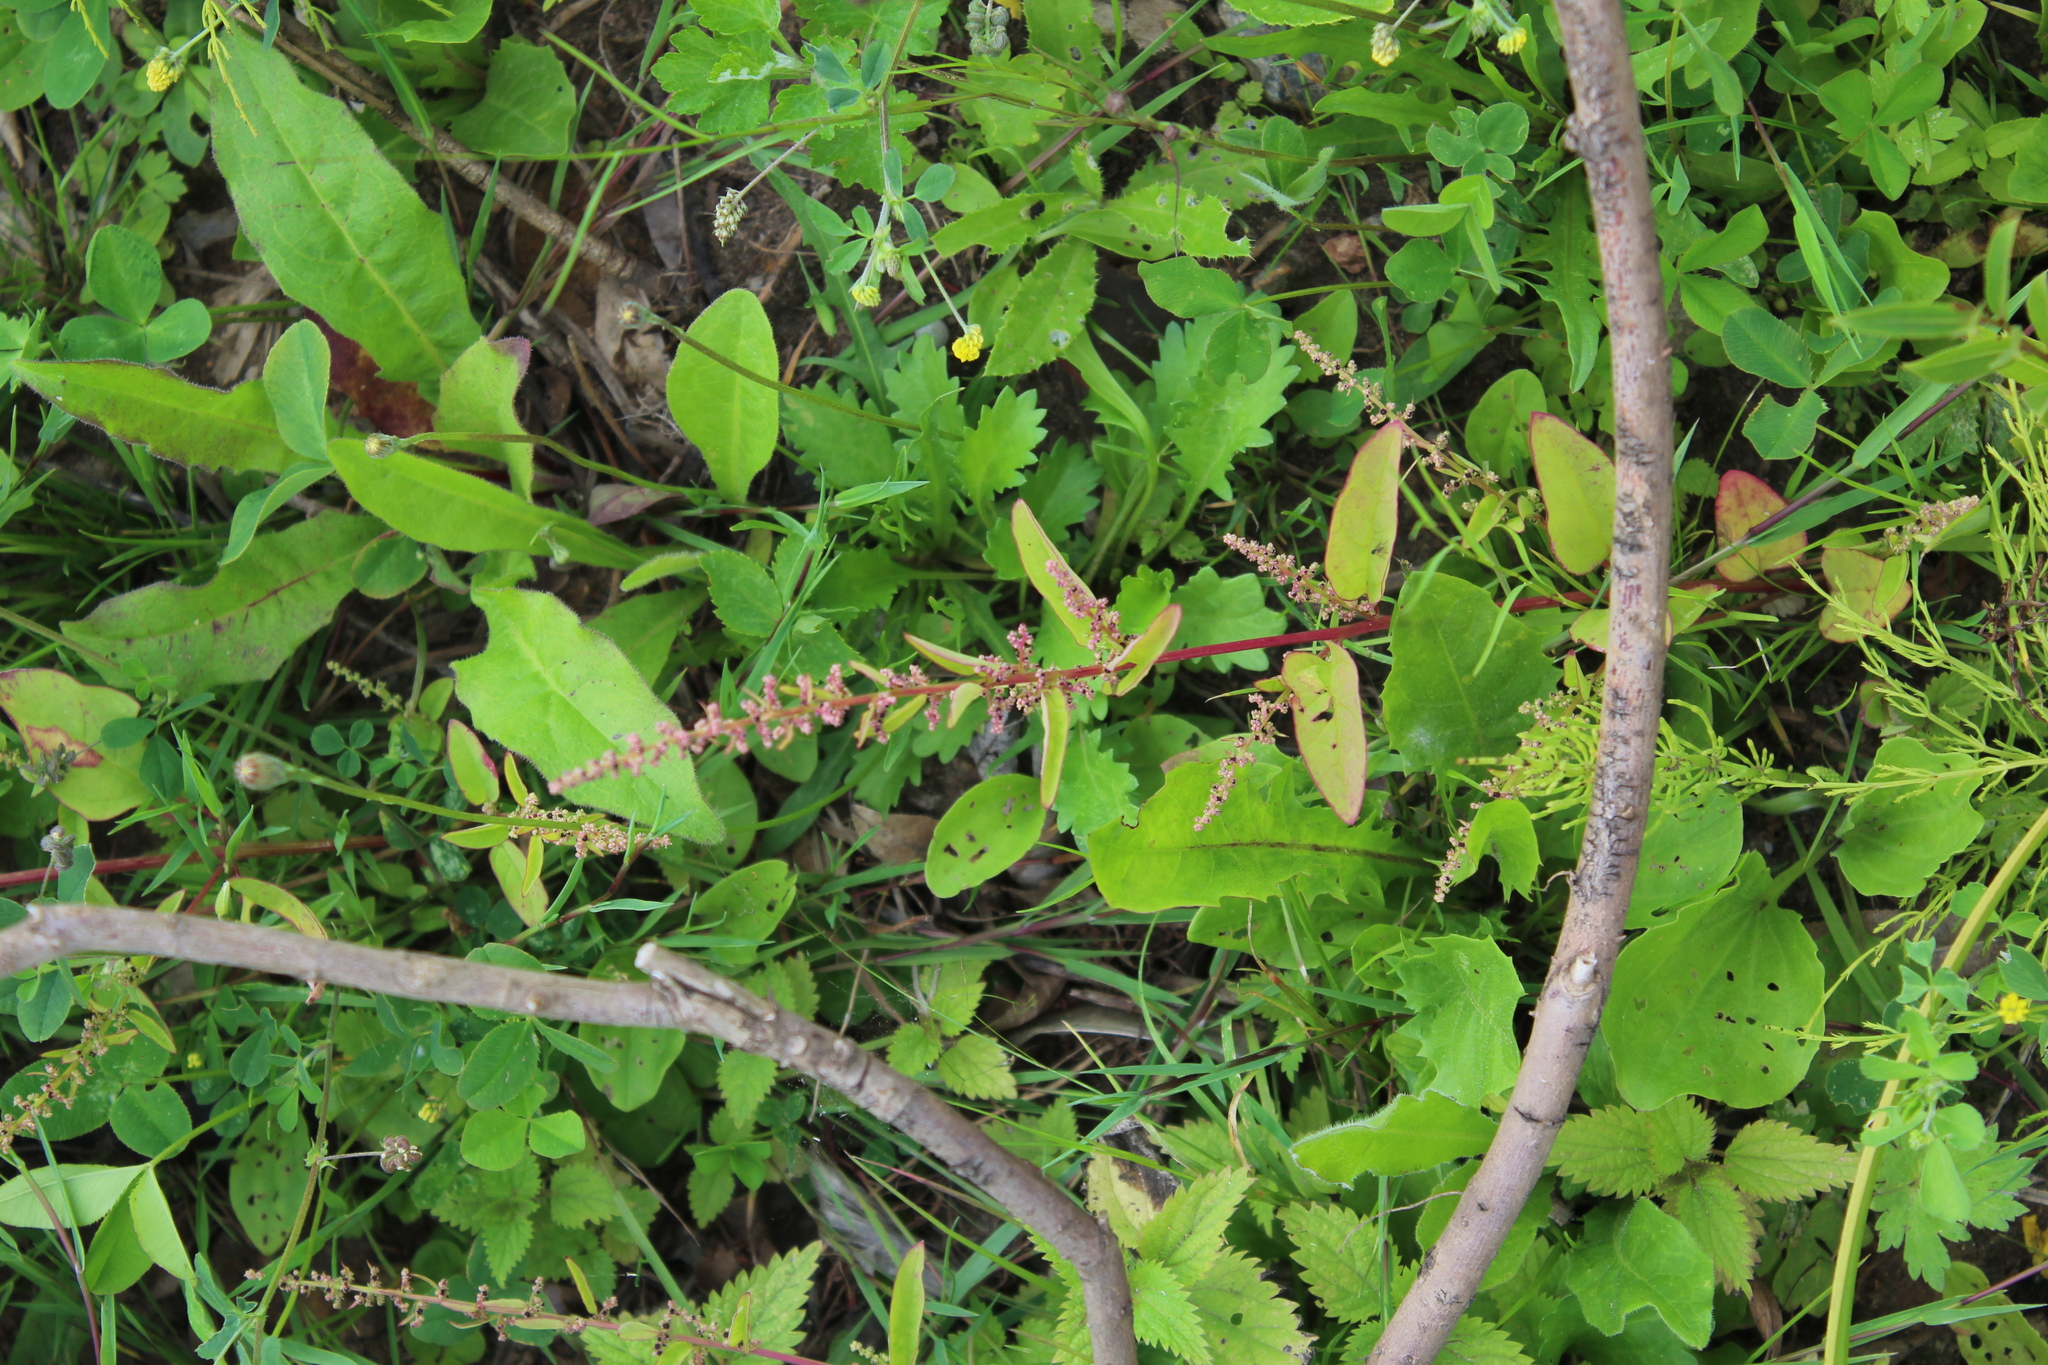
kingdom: Plantae
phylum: Tracheophyta
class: Magnoliopsida
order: Caryophyllales
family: Amaranthaceae
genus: Lipandra
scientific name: Lipandra polysperma
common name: Many-seed goosefoot
